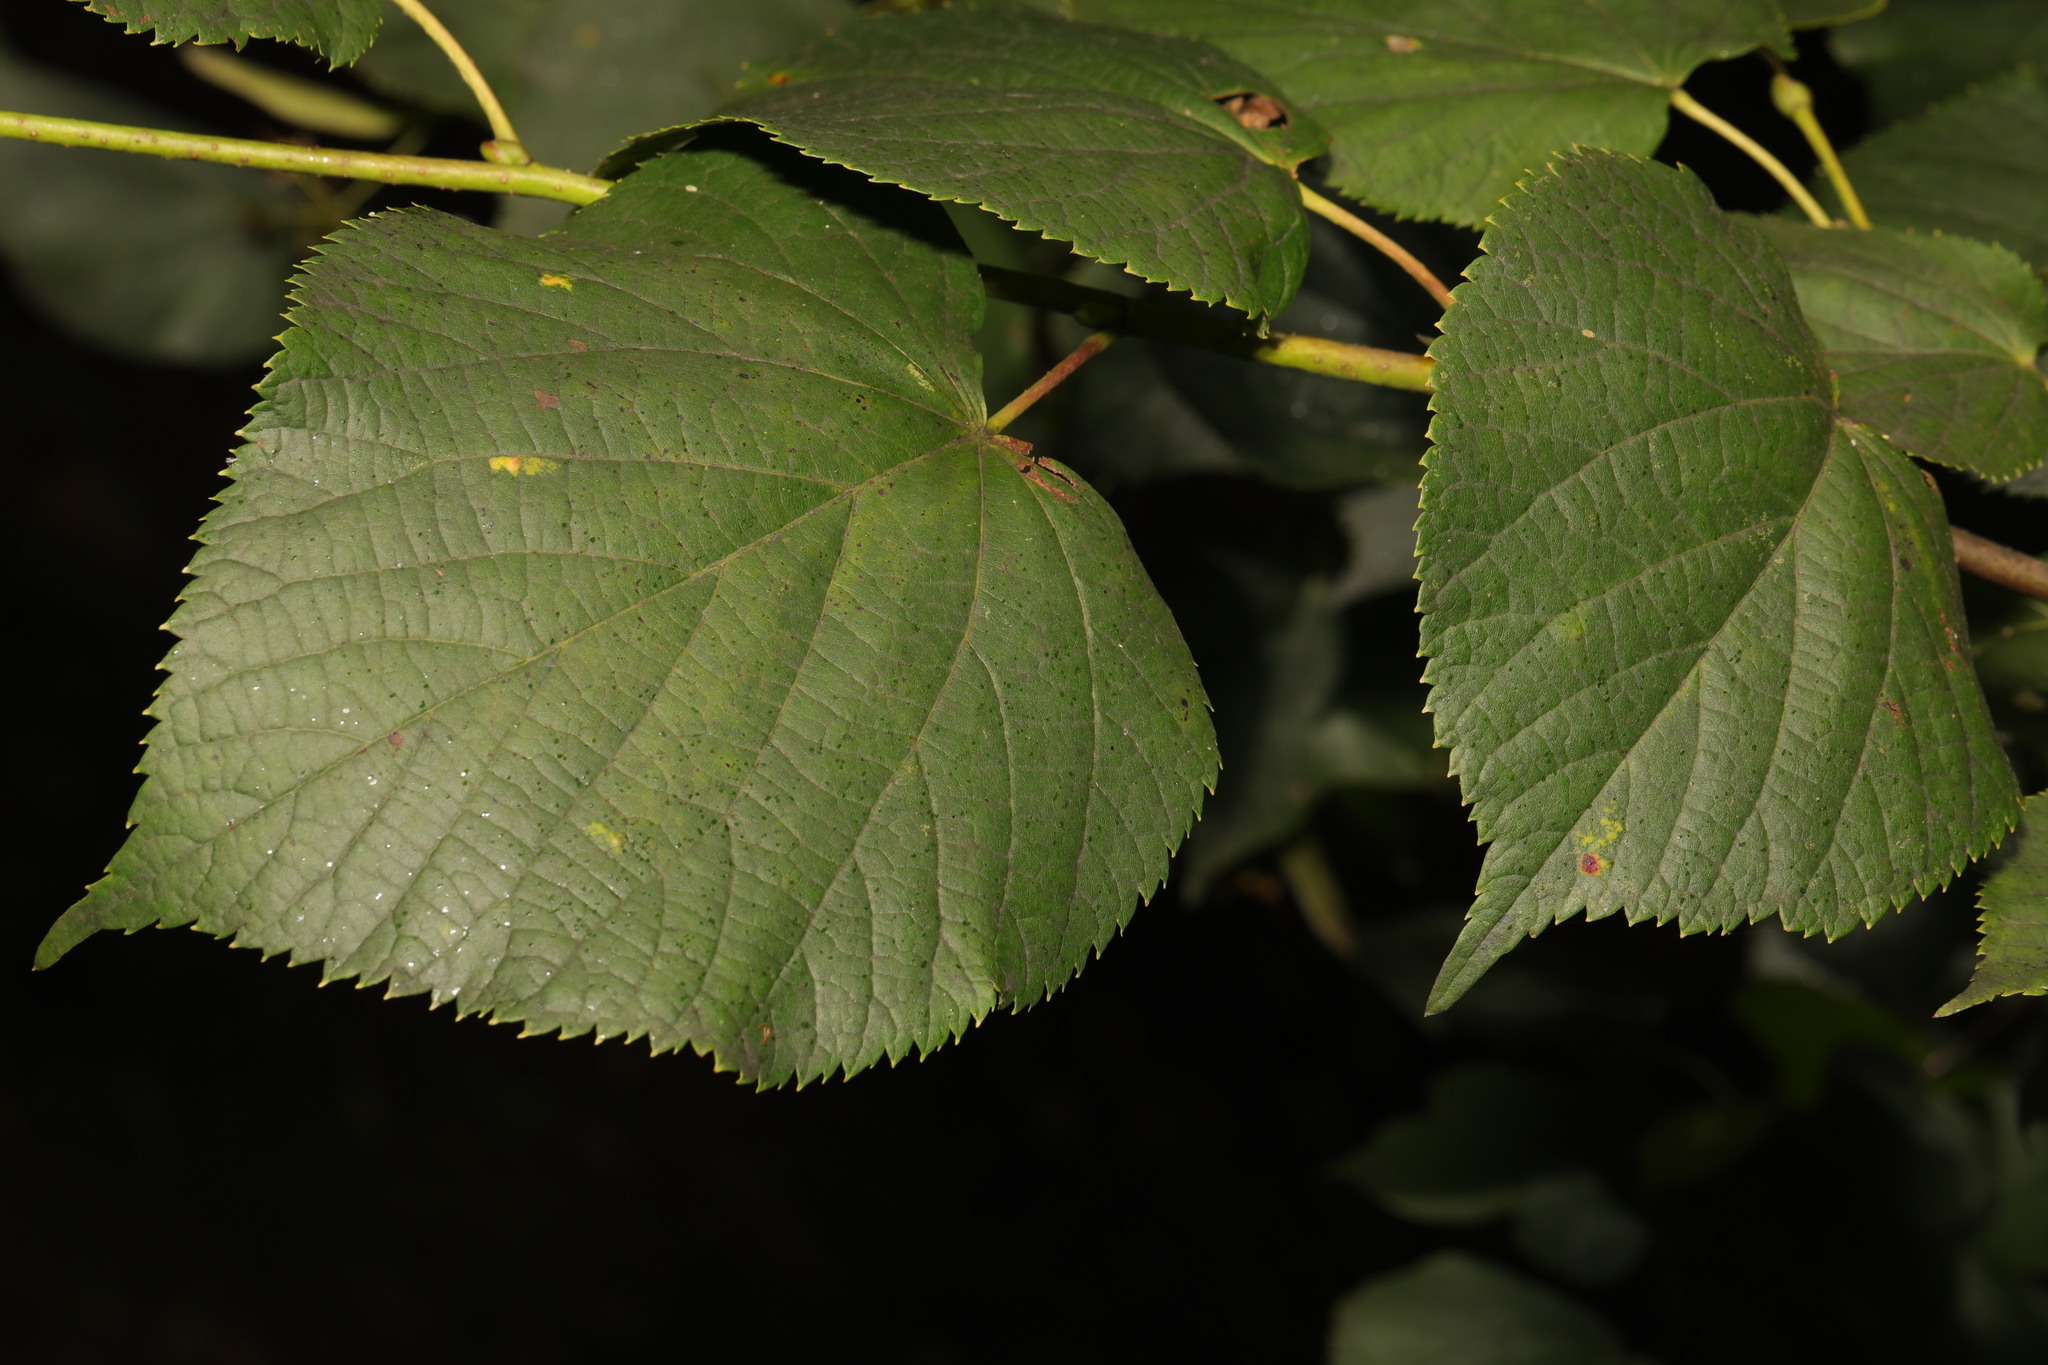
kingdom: Plantae
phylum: Tracheophyta
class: Magnoliopsida
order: Malvales
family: Malvaceae
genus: Tilia
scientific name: Tilia europaea
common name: European linden
